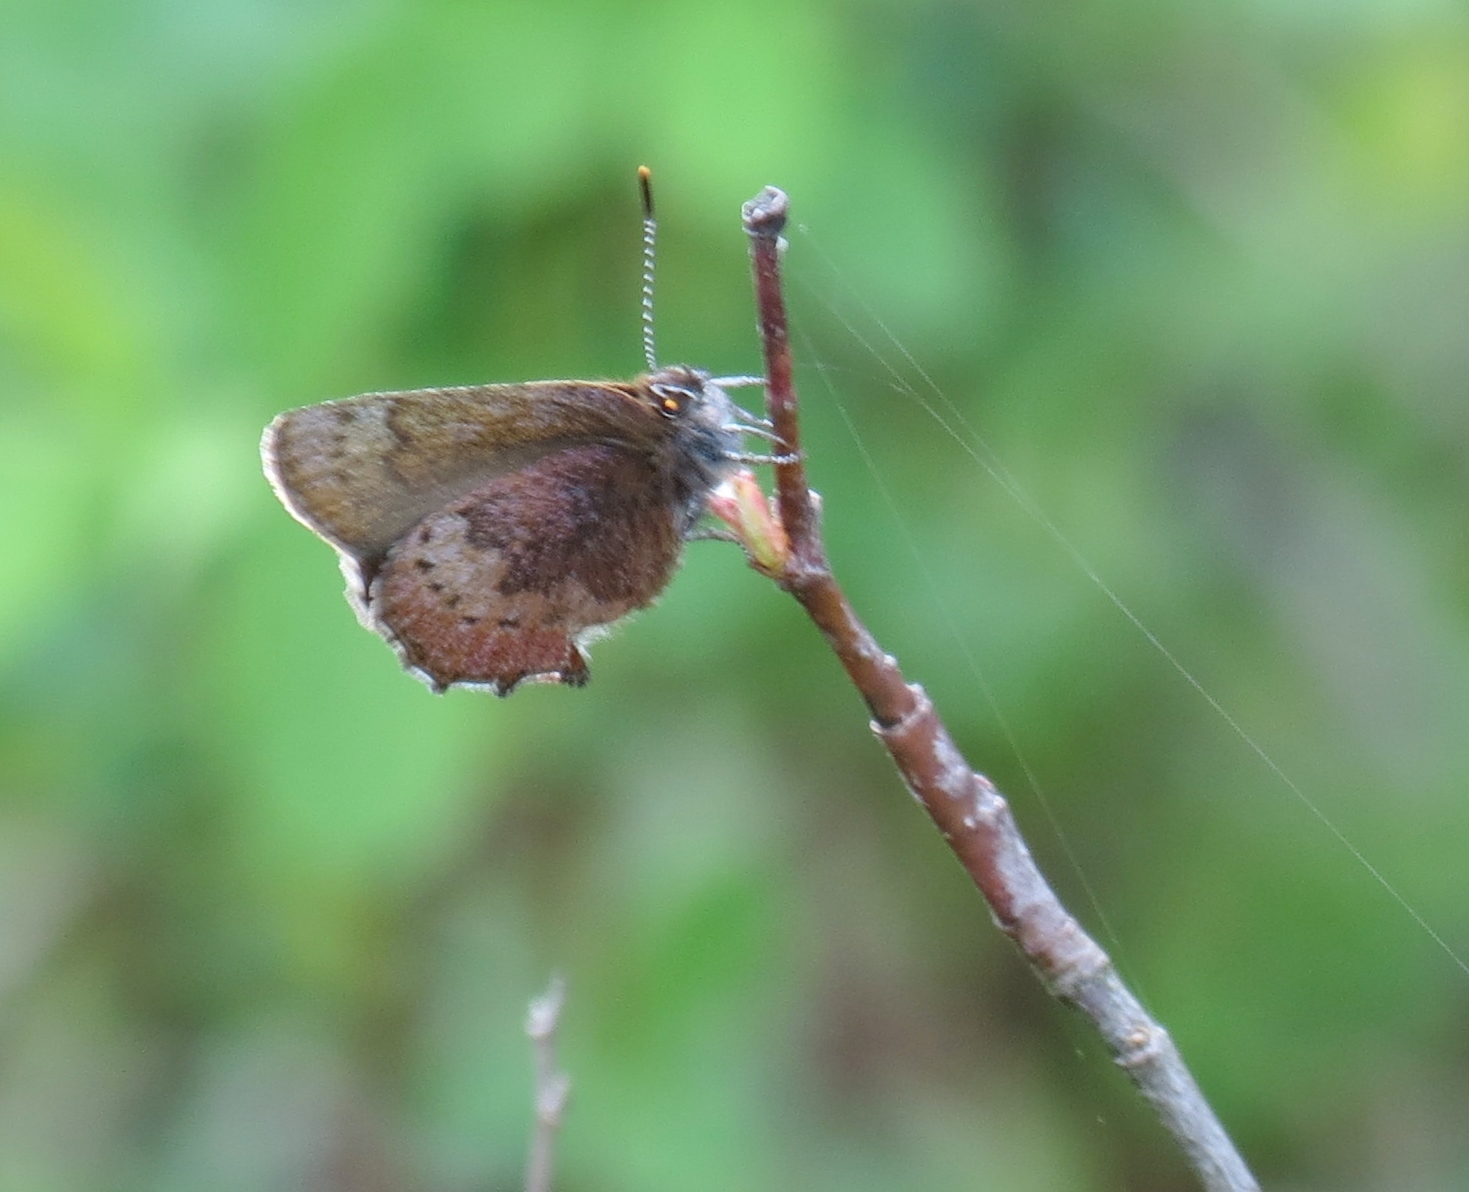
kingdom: Animalia
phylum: Arthropoda
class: Insecta
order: Lepidoptera
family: Lycaenidae
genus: Incisalia
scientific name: Incisalia irioides
